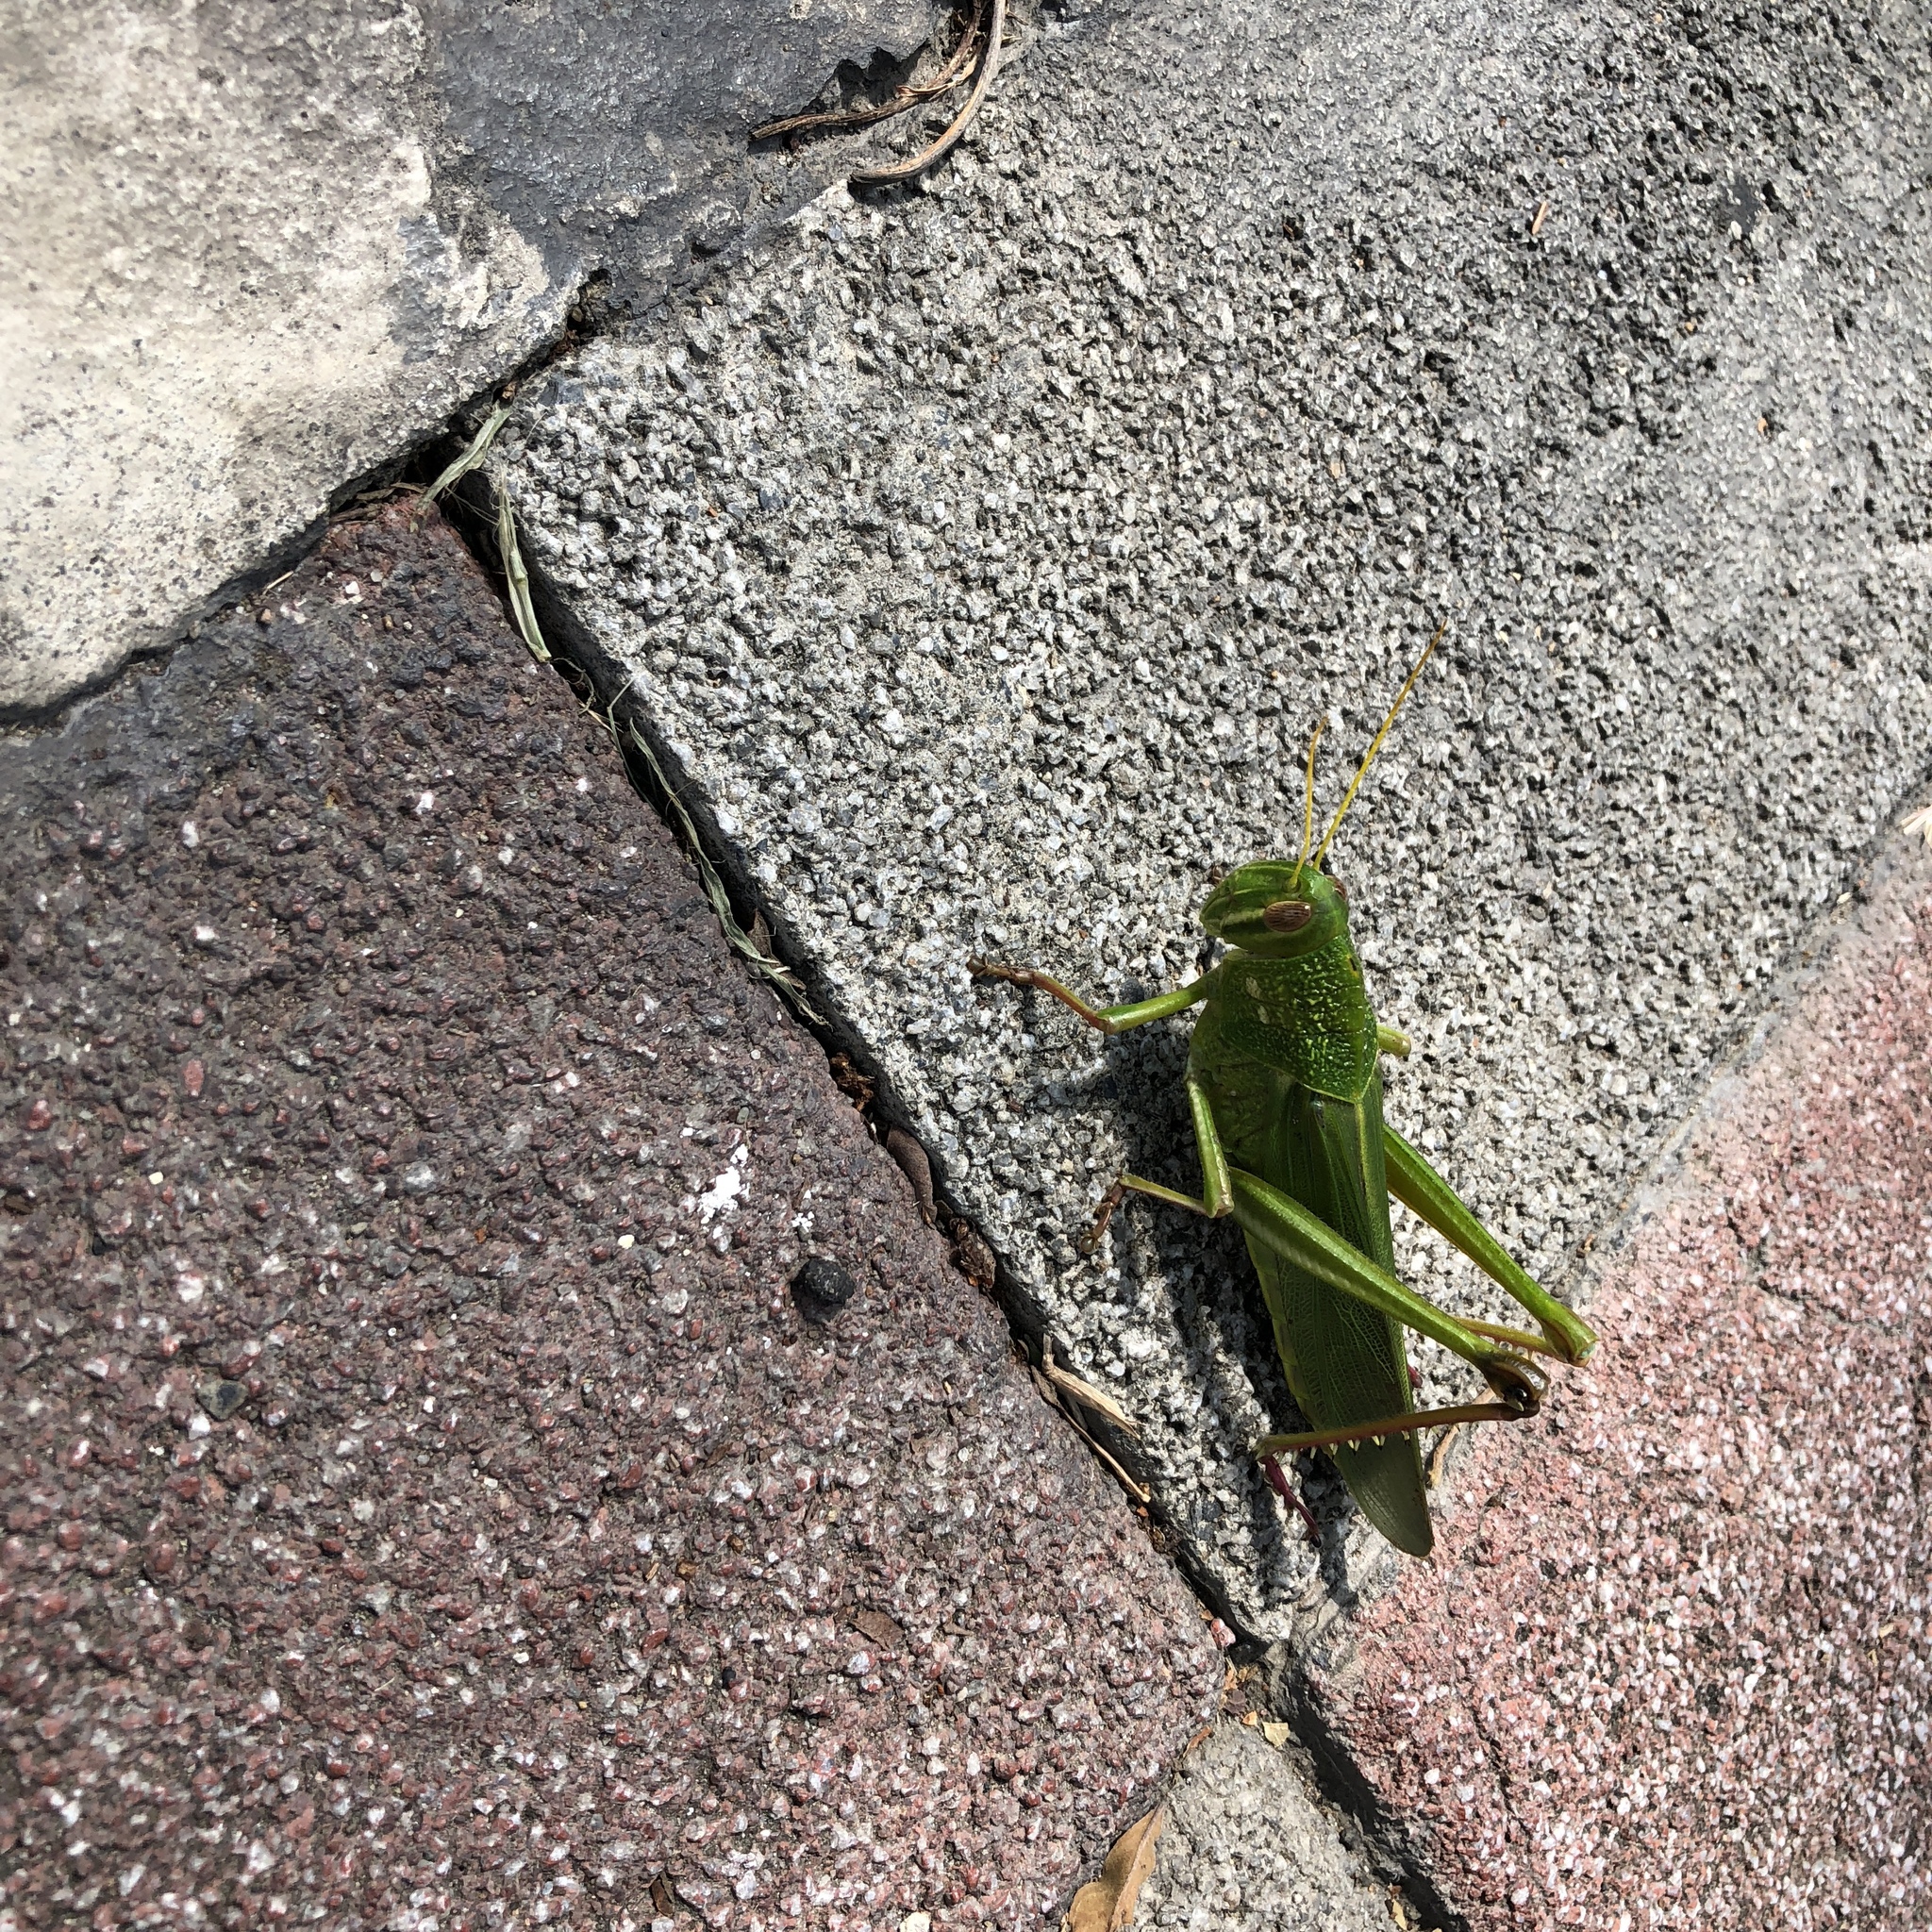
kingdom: Animalia
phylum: Arthropoda
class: Insecta
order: Orthoptera
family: Acrididae
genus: Chondracris
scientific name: Chondracris rosea
